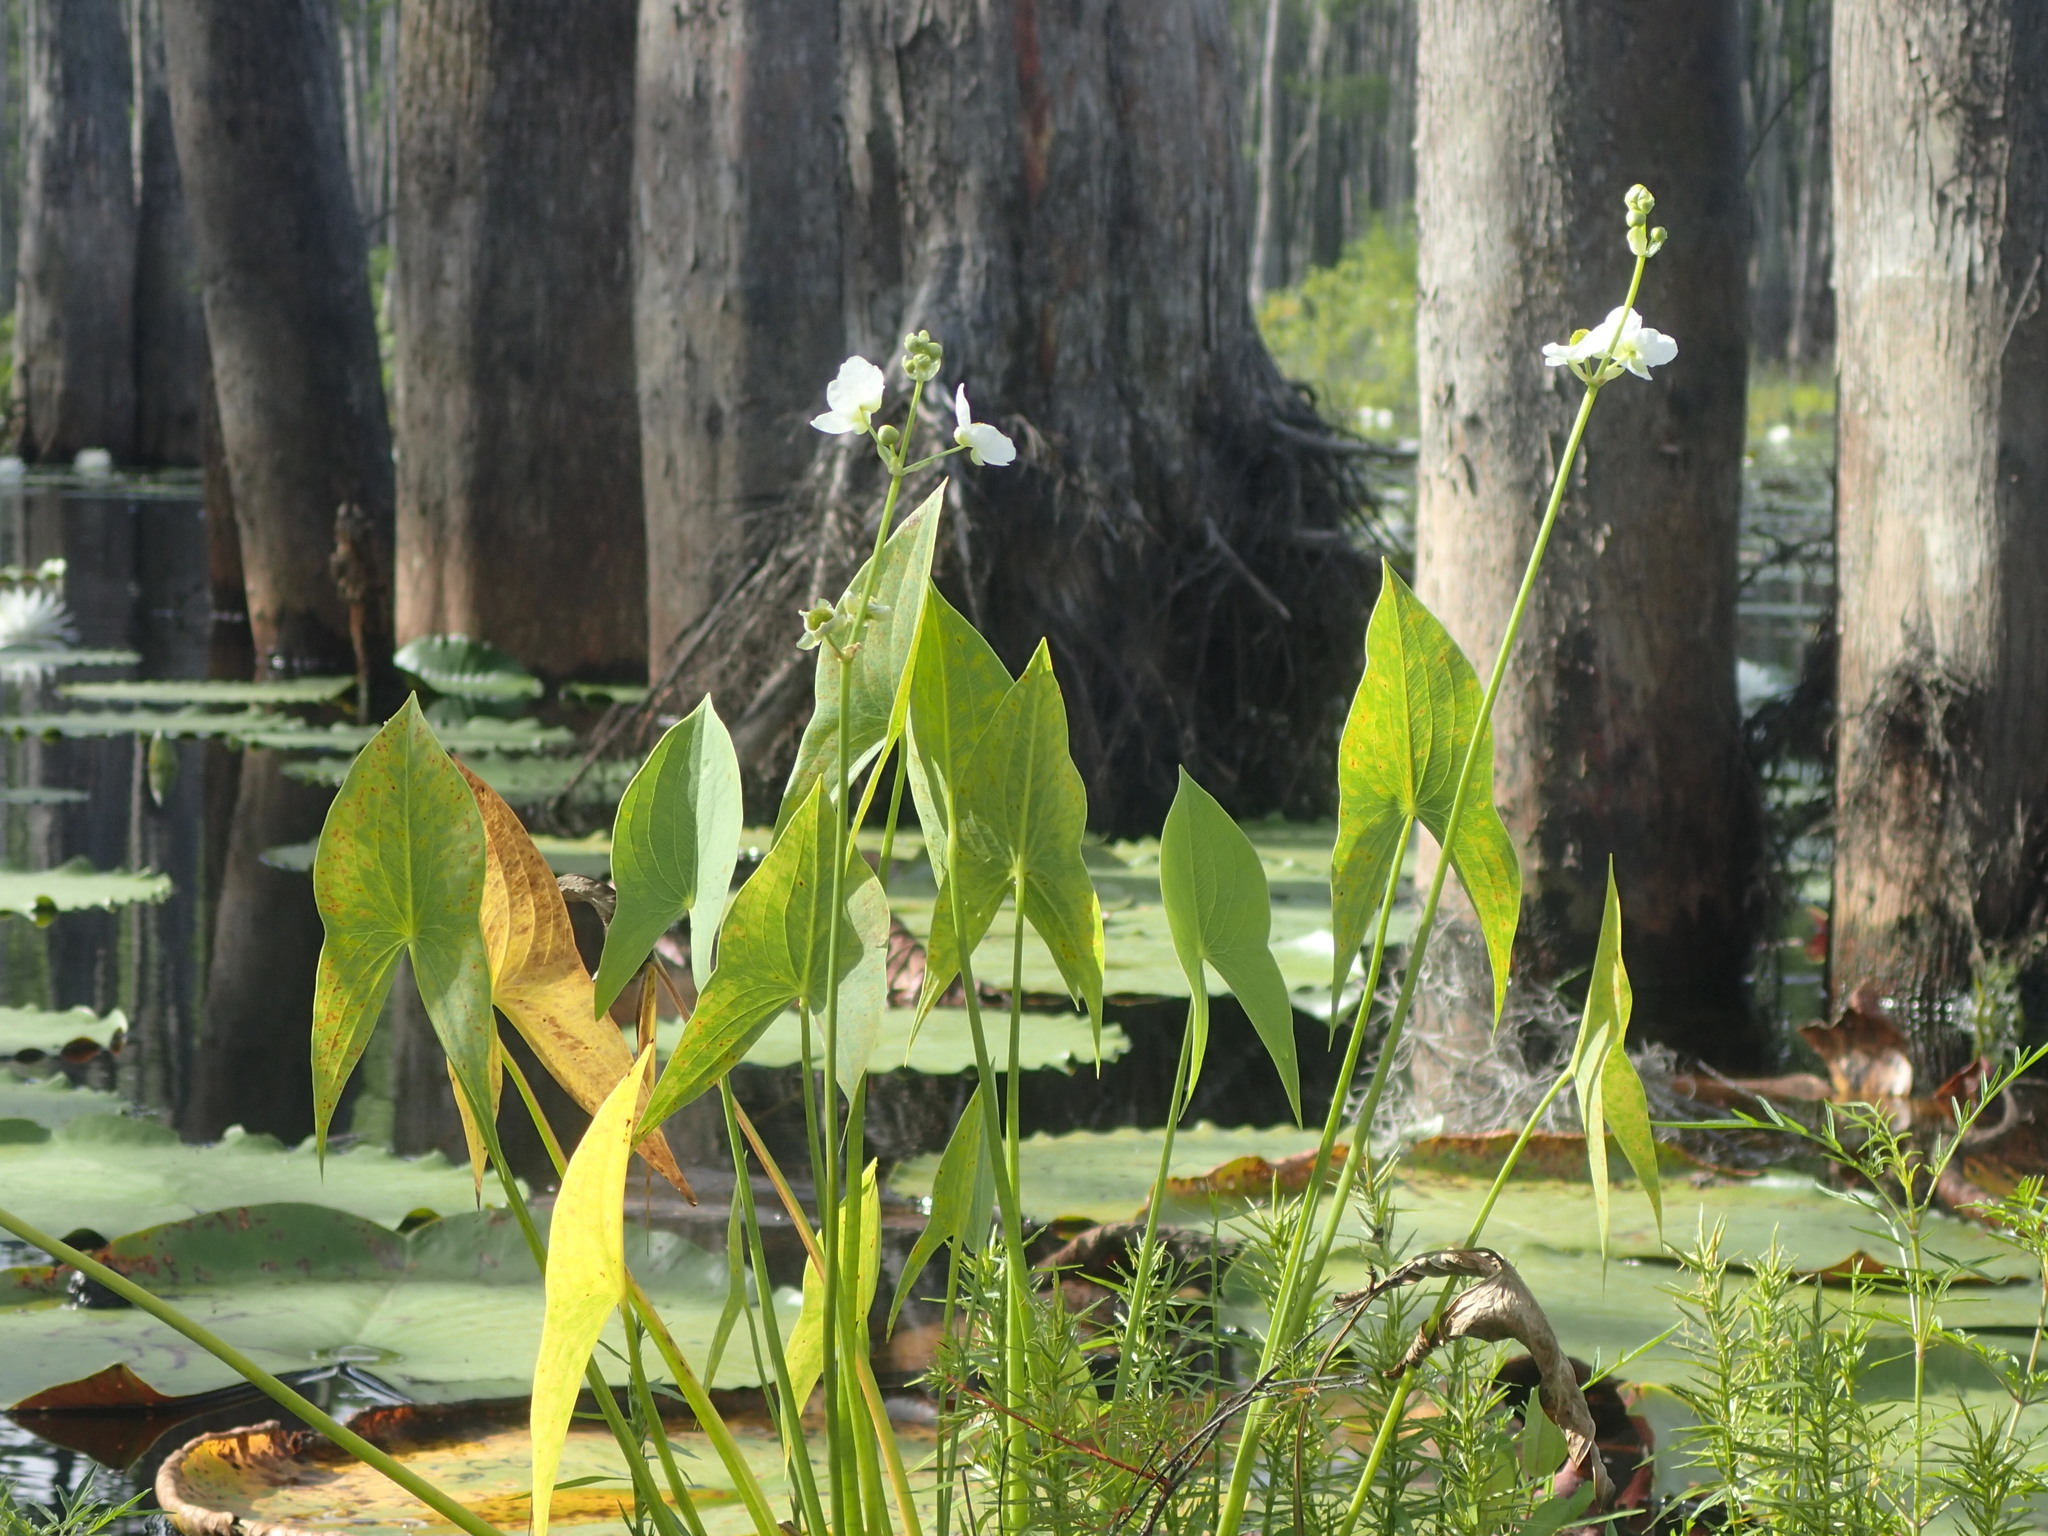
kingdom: Plantae
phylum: Tracheophyta
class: Liliopsida
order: Alismatales
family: Alismataceae
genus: Sagittaria
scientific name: Sagittaria engelmanniana
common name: Acid-water arrowhead
